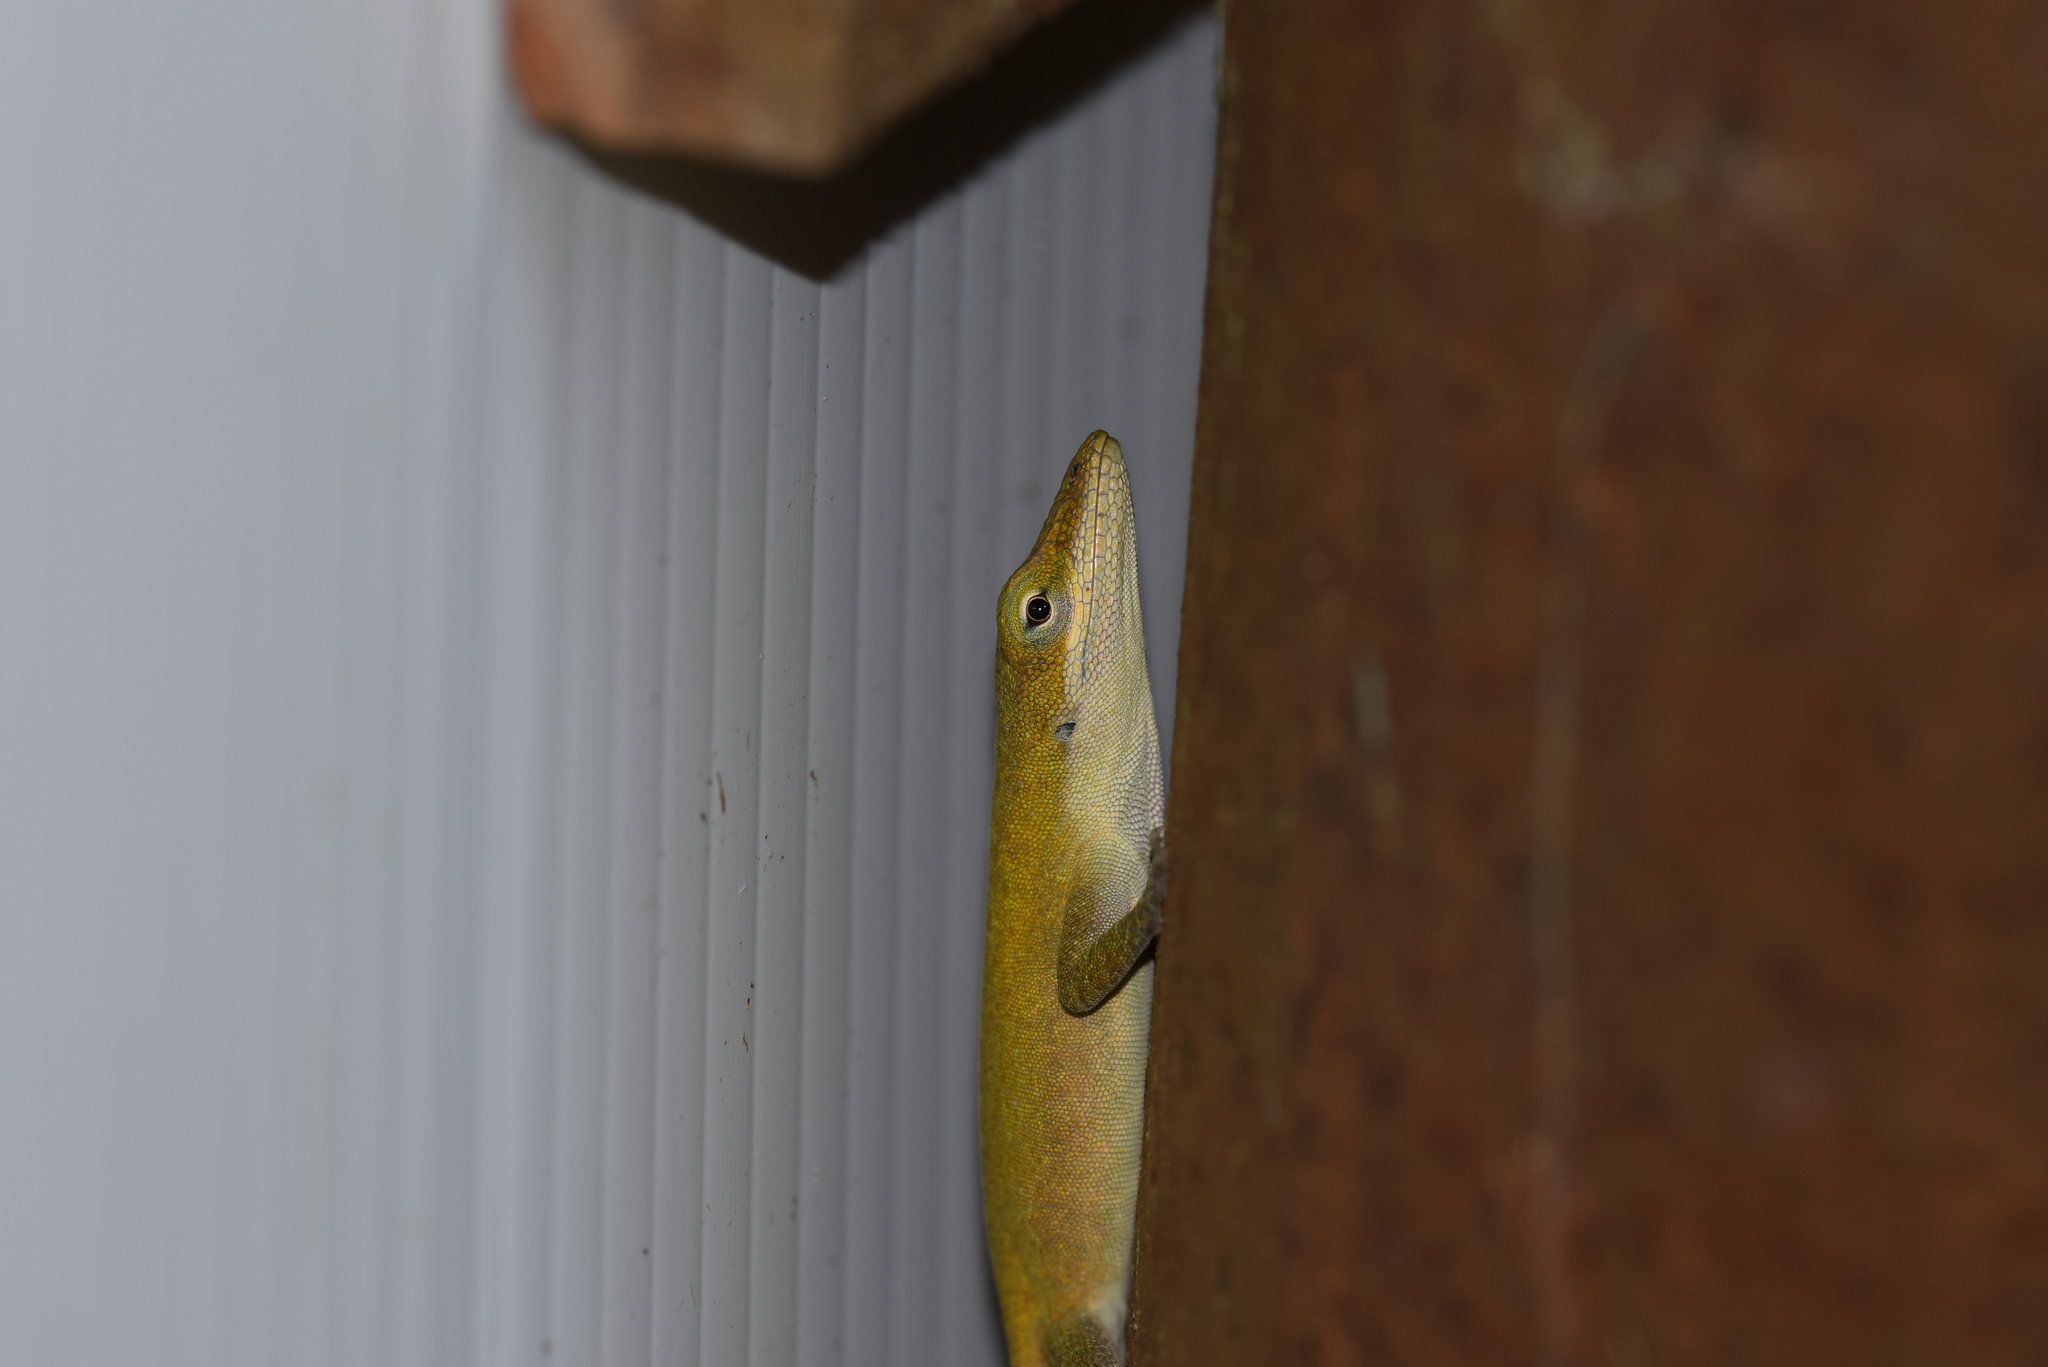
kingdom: Animalia
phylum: Chordata
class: Squamata
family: Dactyloidae
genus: Anolis
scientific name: Anolis carolinensis
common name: Green anole
